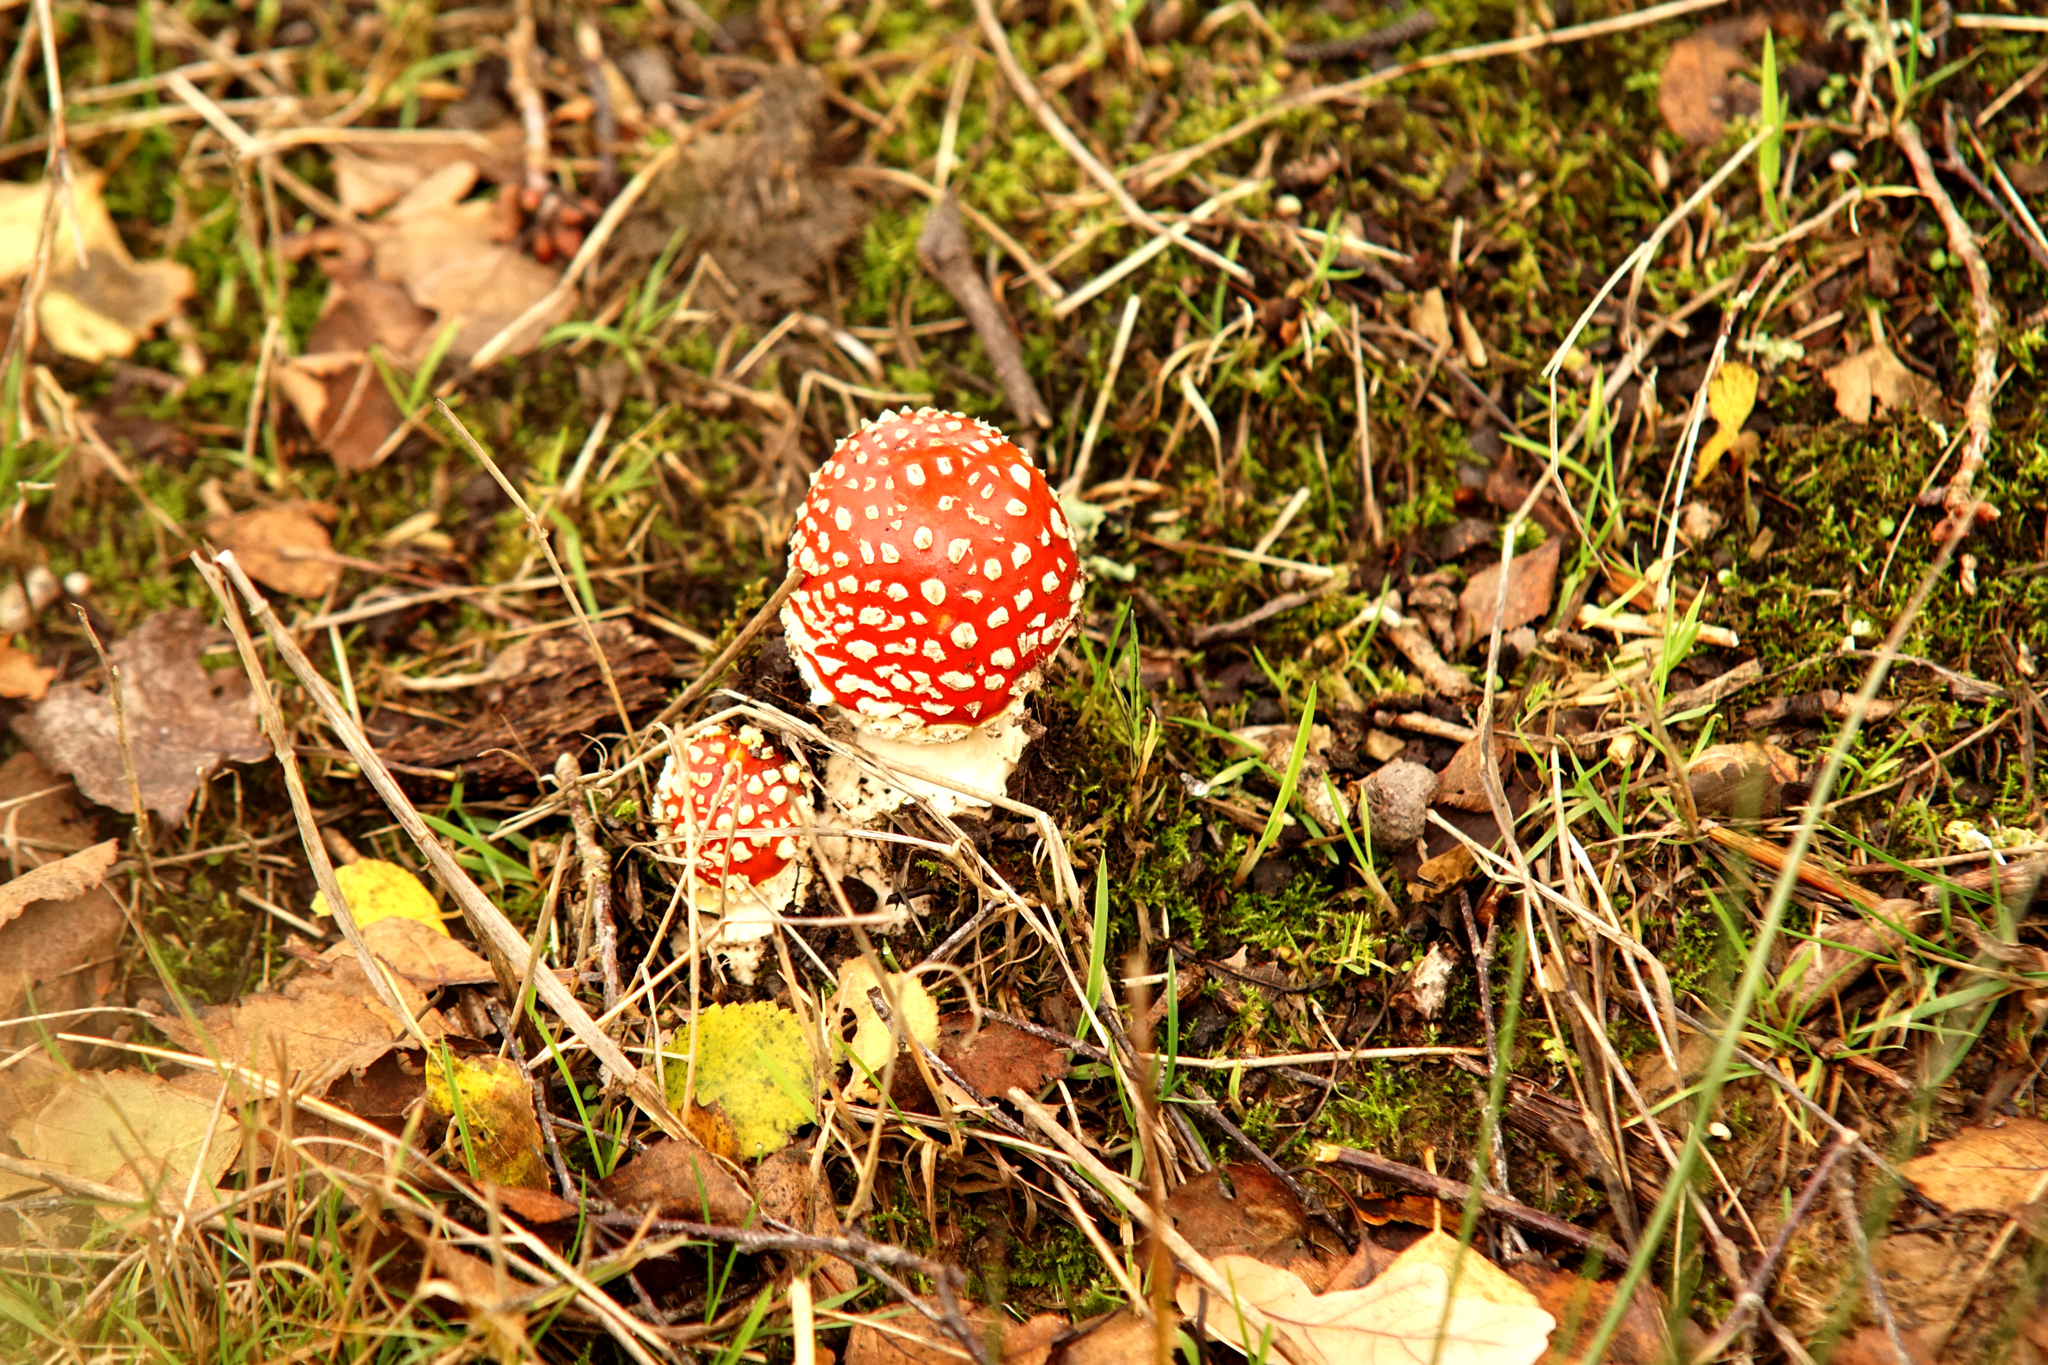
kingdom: Fungi
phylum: Basidiomycota
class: Agaricomycetes
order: Agaricales
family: Amanitaceae
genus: Amanita
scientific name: Amanita muscaria
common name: Fly agaric
